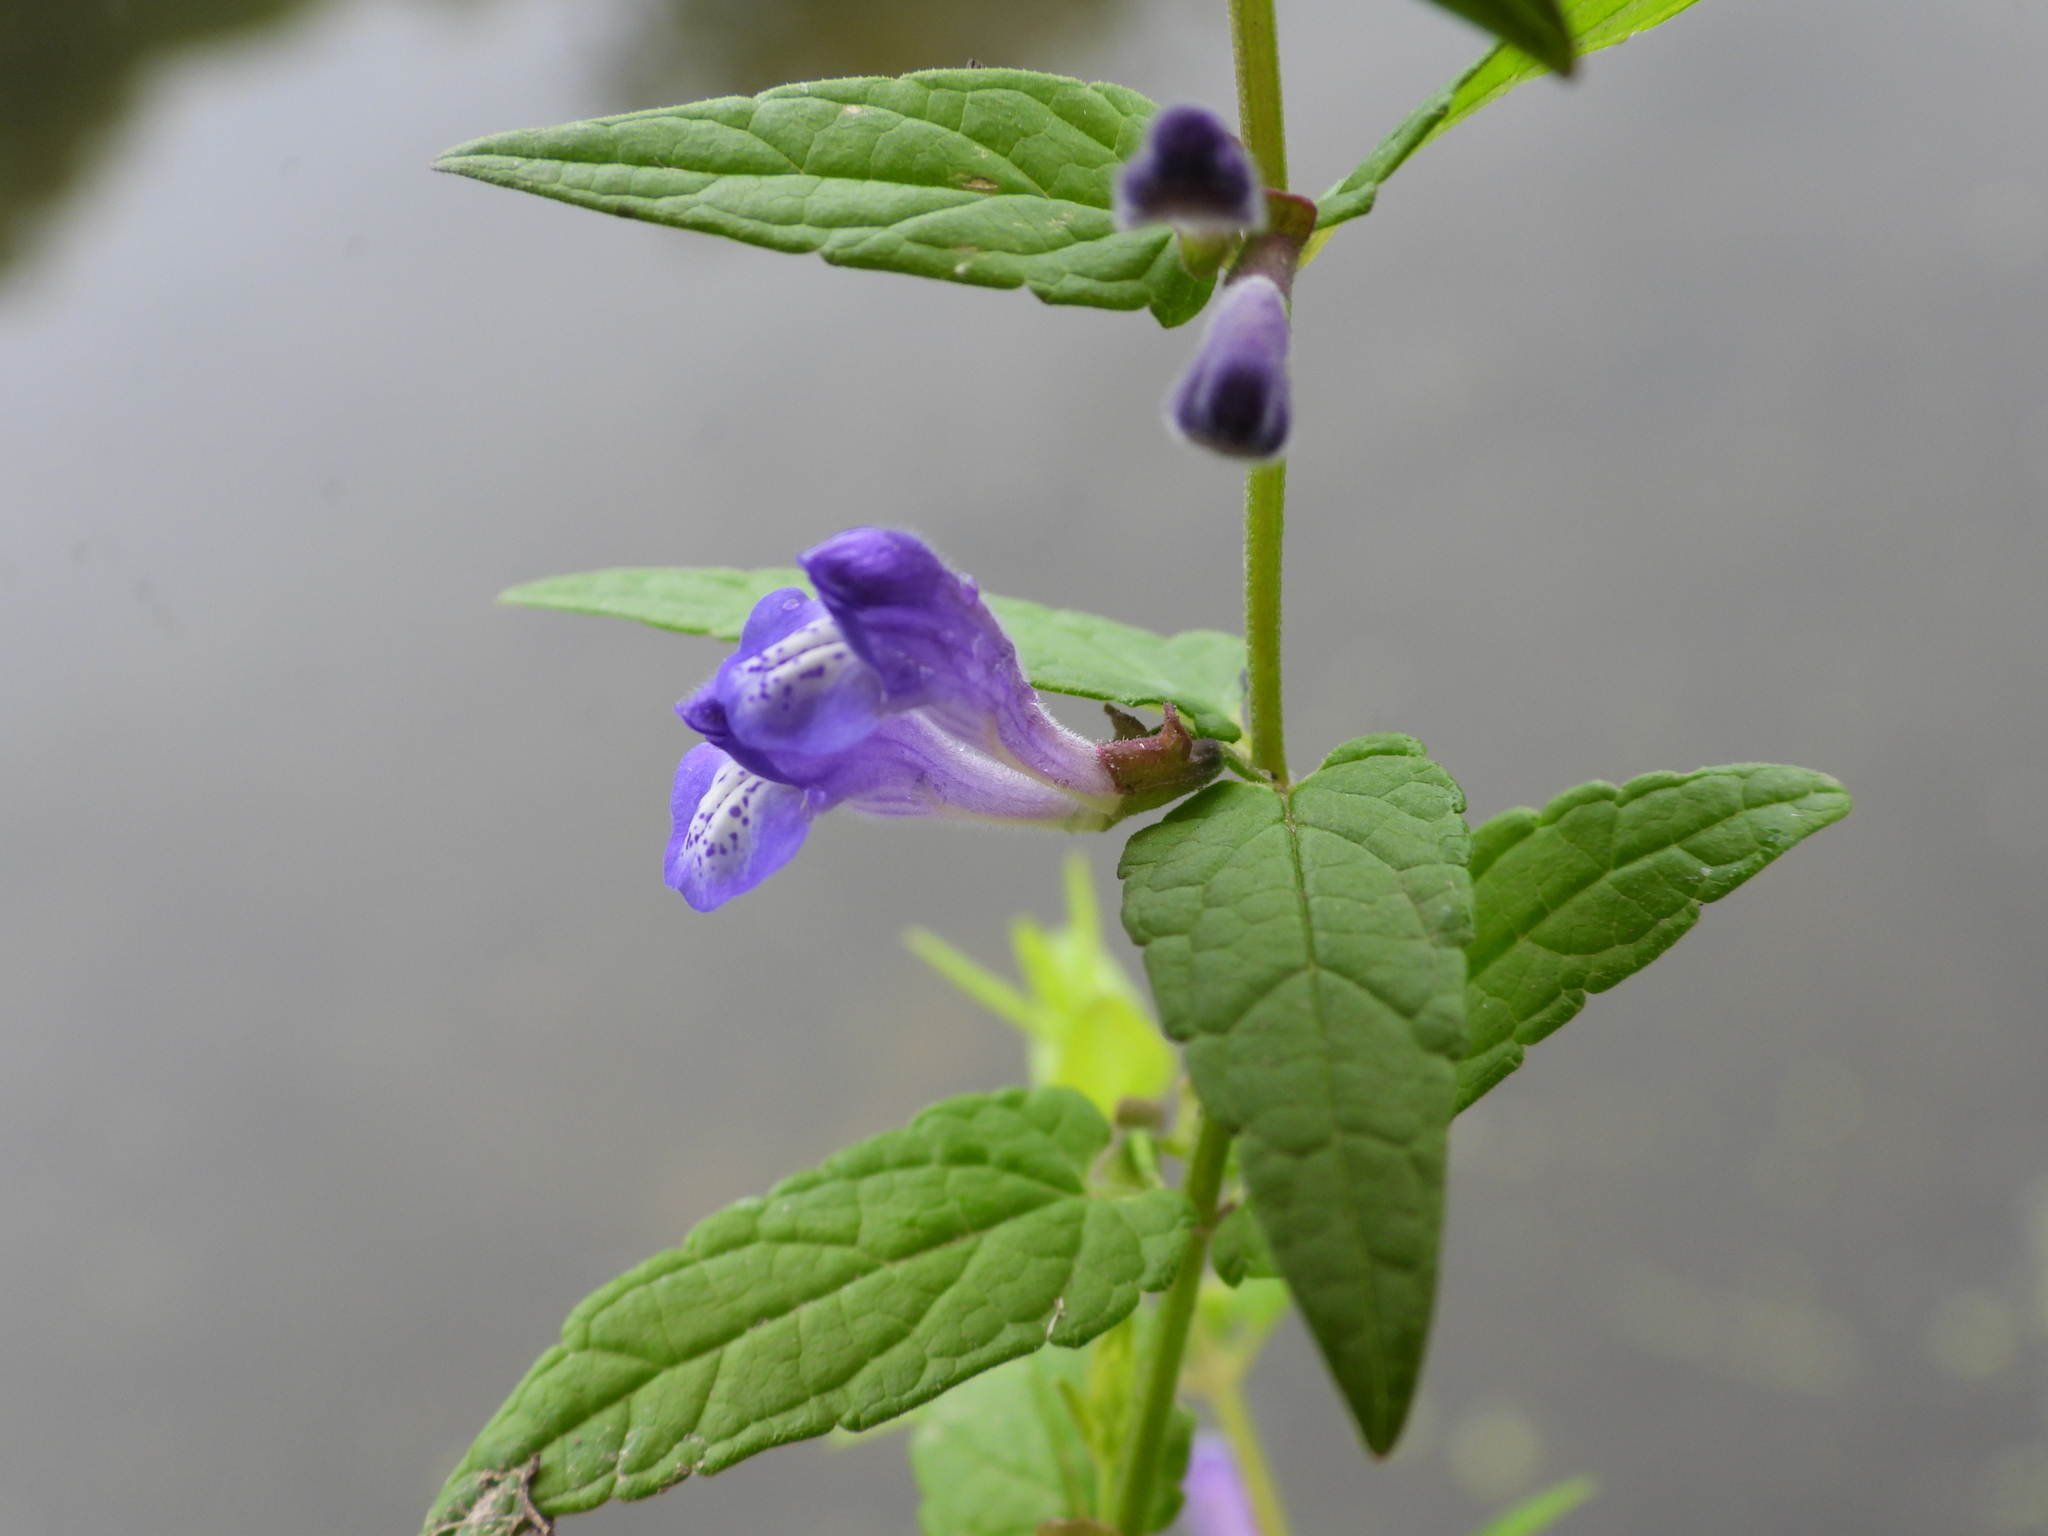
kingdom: Plantae
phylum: Tracheophyta
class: Magnoliopsida
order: Lamiales
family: Lamiaceae
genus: Scutellaria
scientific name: Scutellaria galericulata
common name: Skullcap
